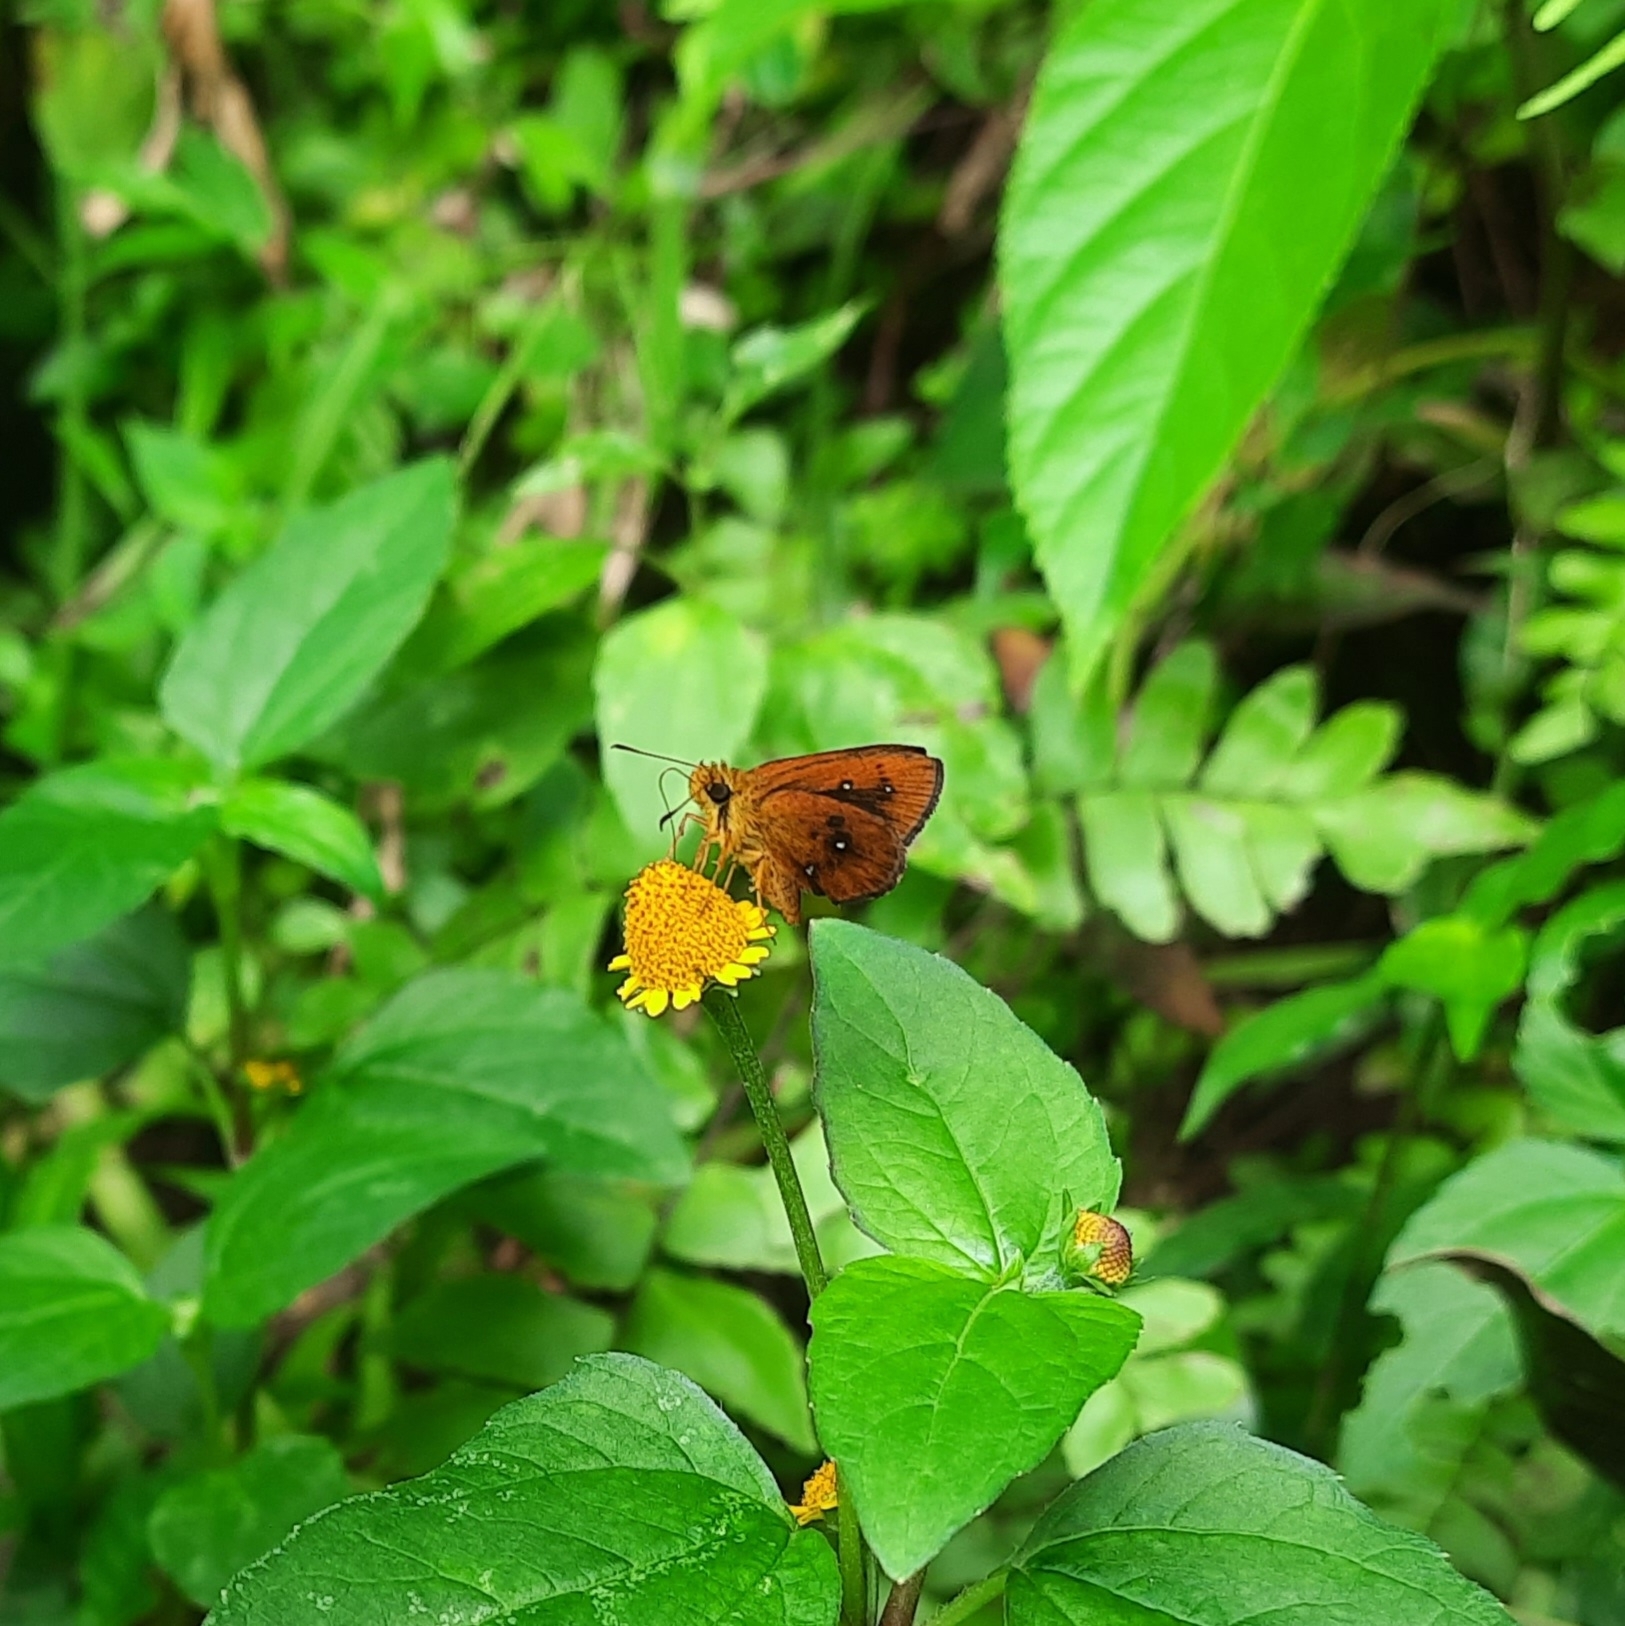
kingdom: Animalia
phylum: Arthropoda
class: Insecta
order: Lepidoptera
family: Hesperiidae
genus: Iambrix
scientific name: Iambrix salsala
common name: Chestnut bob
